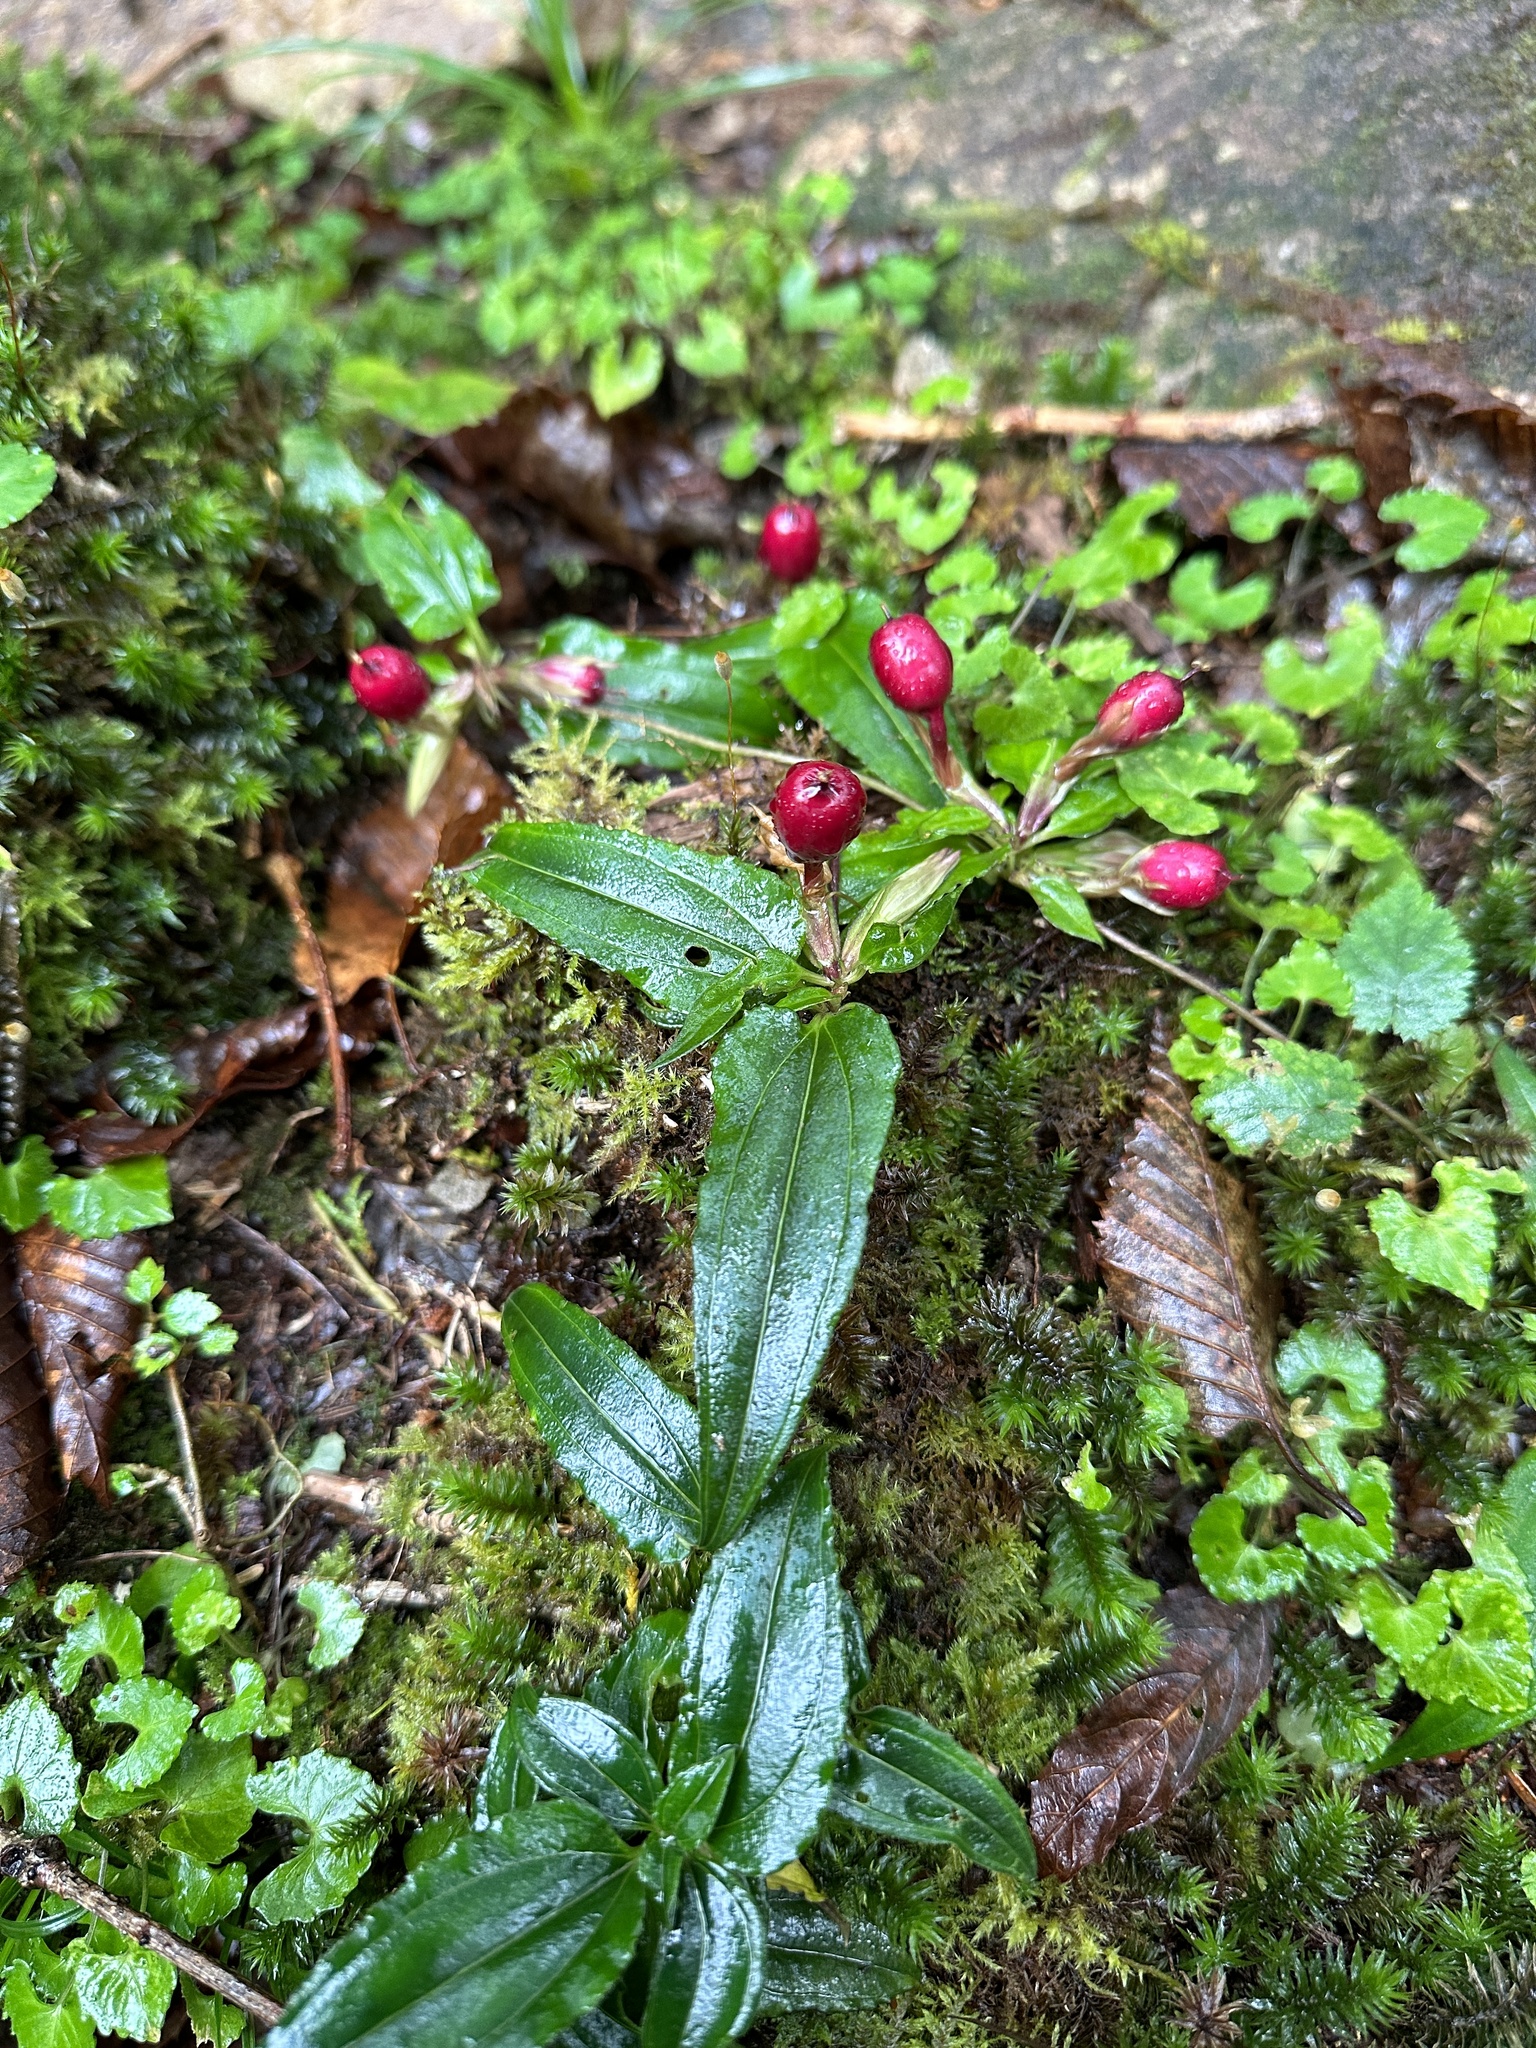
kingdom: Plantae
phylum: Tracheophyta
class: Magnoliopsida
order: Gentianales
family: Gentianaceae
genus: Tripterospermum
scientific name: Tripterospermum trinervium
